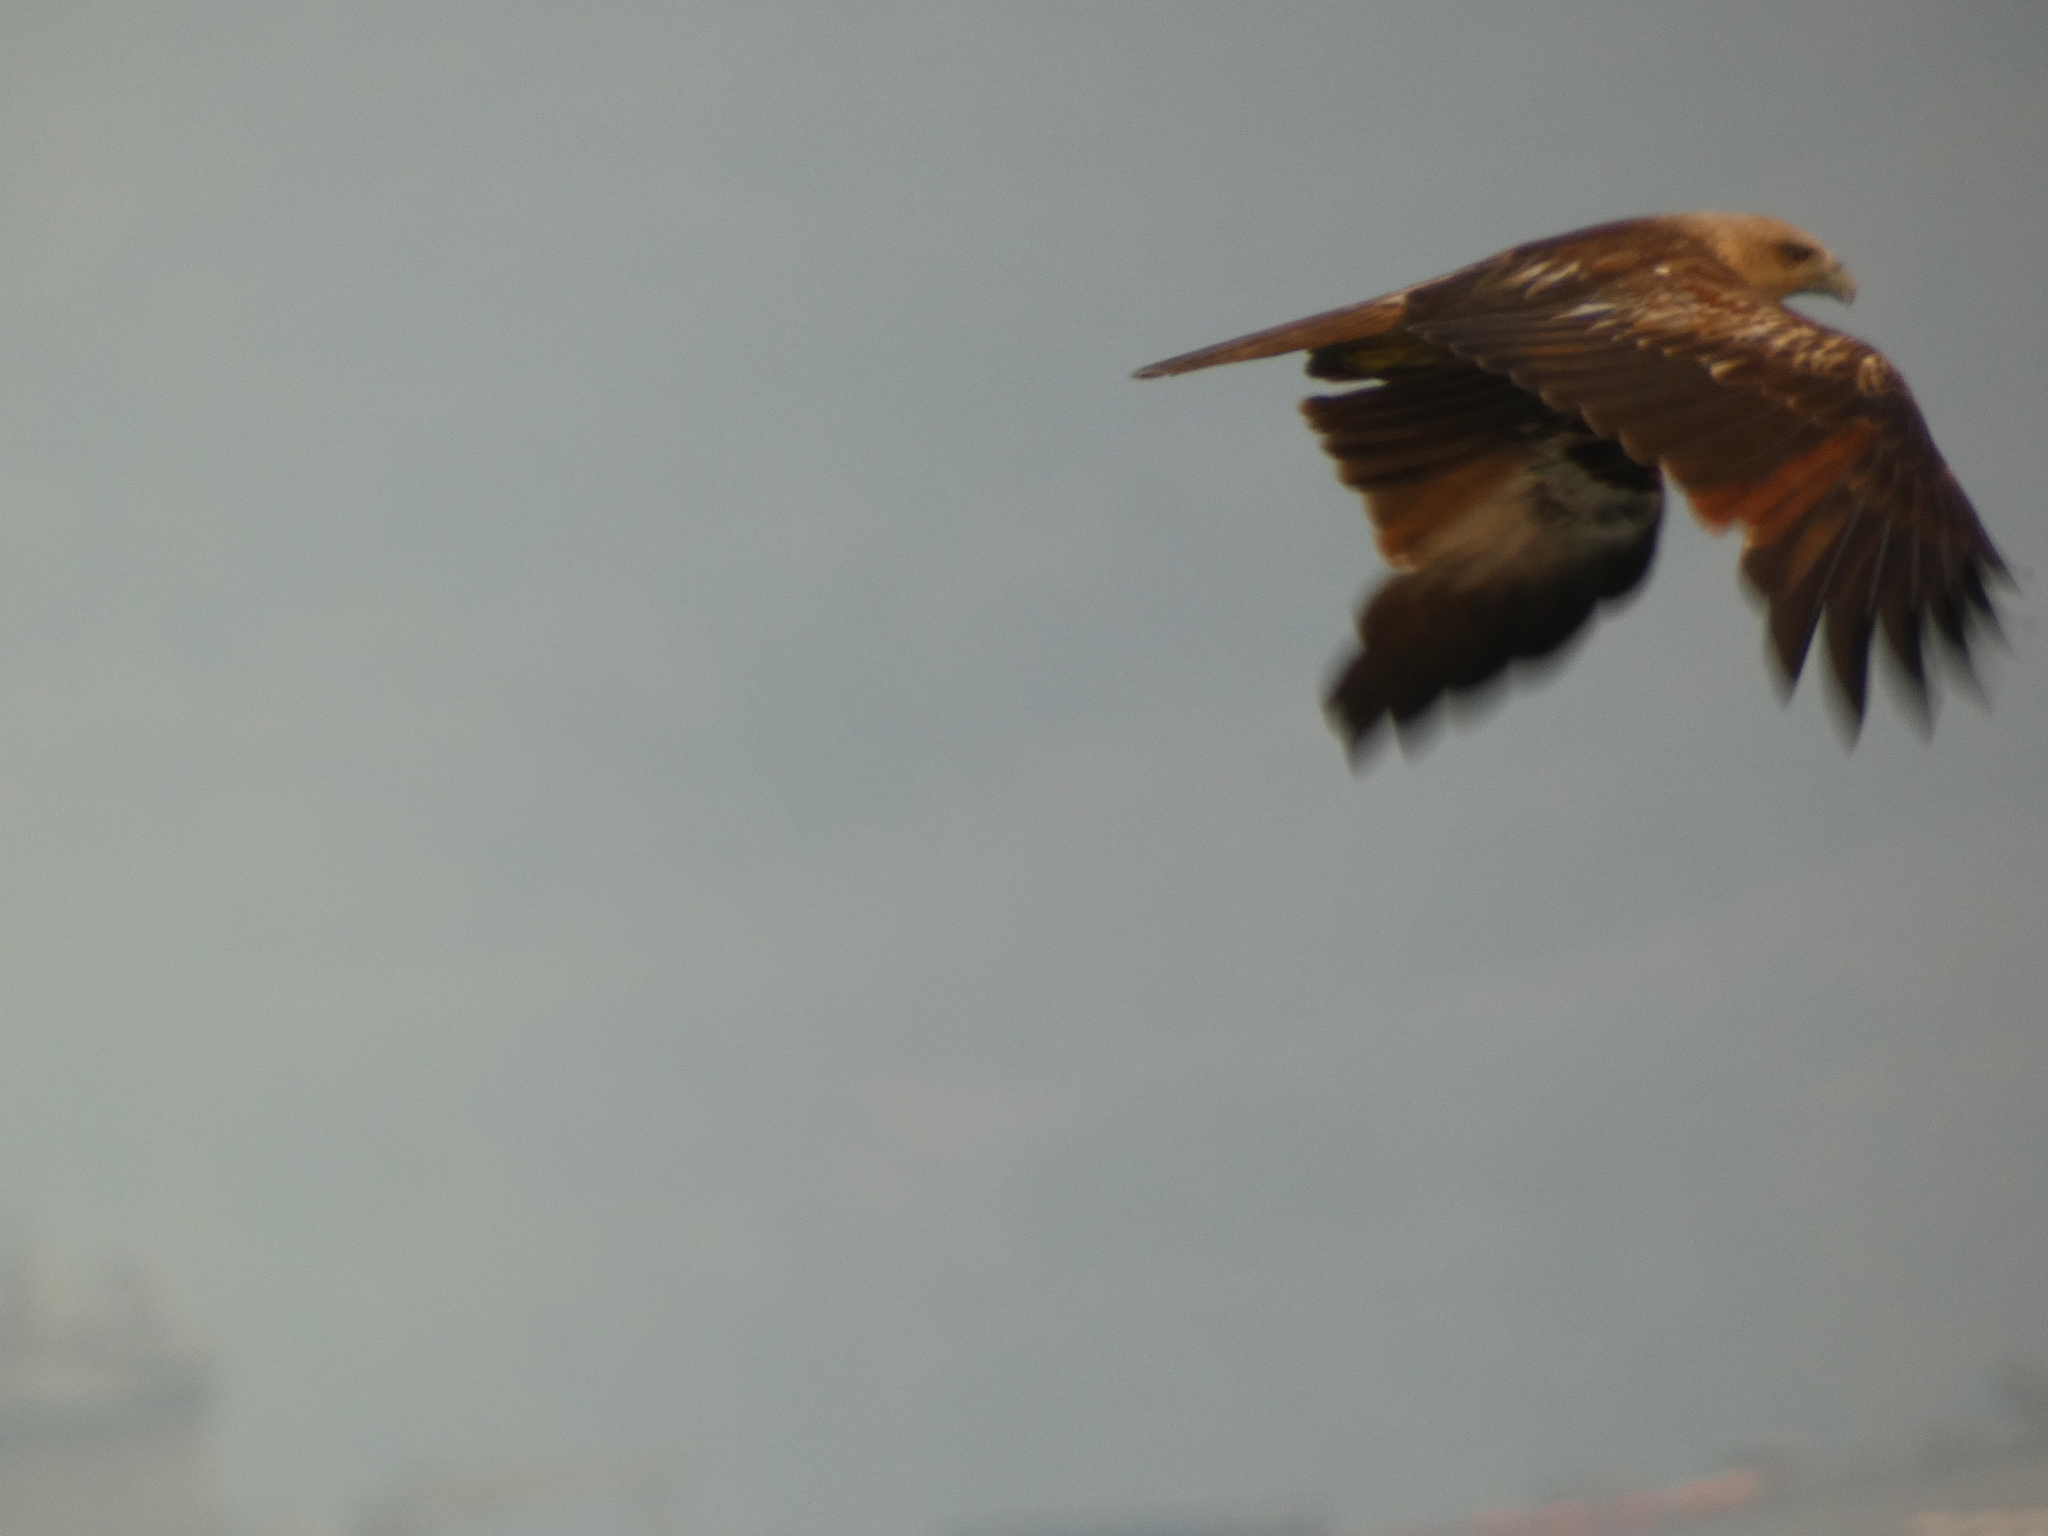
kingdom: Animalia
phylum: Chordata
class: Aves
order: Accipitriformes
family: Accipitridae
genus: Haliastur
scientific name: Haliastur indus
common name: Brahminy kite
